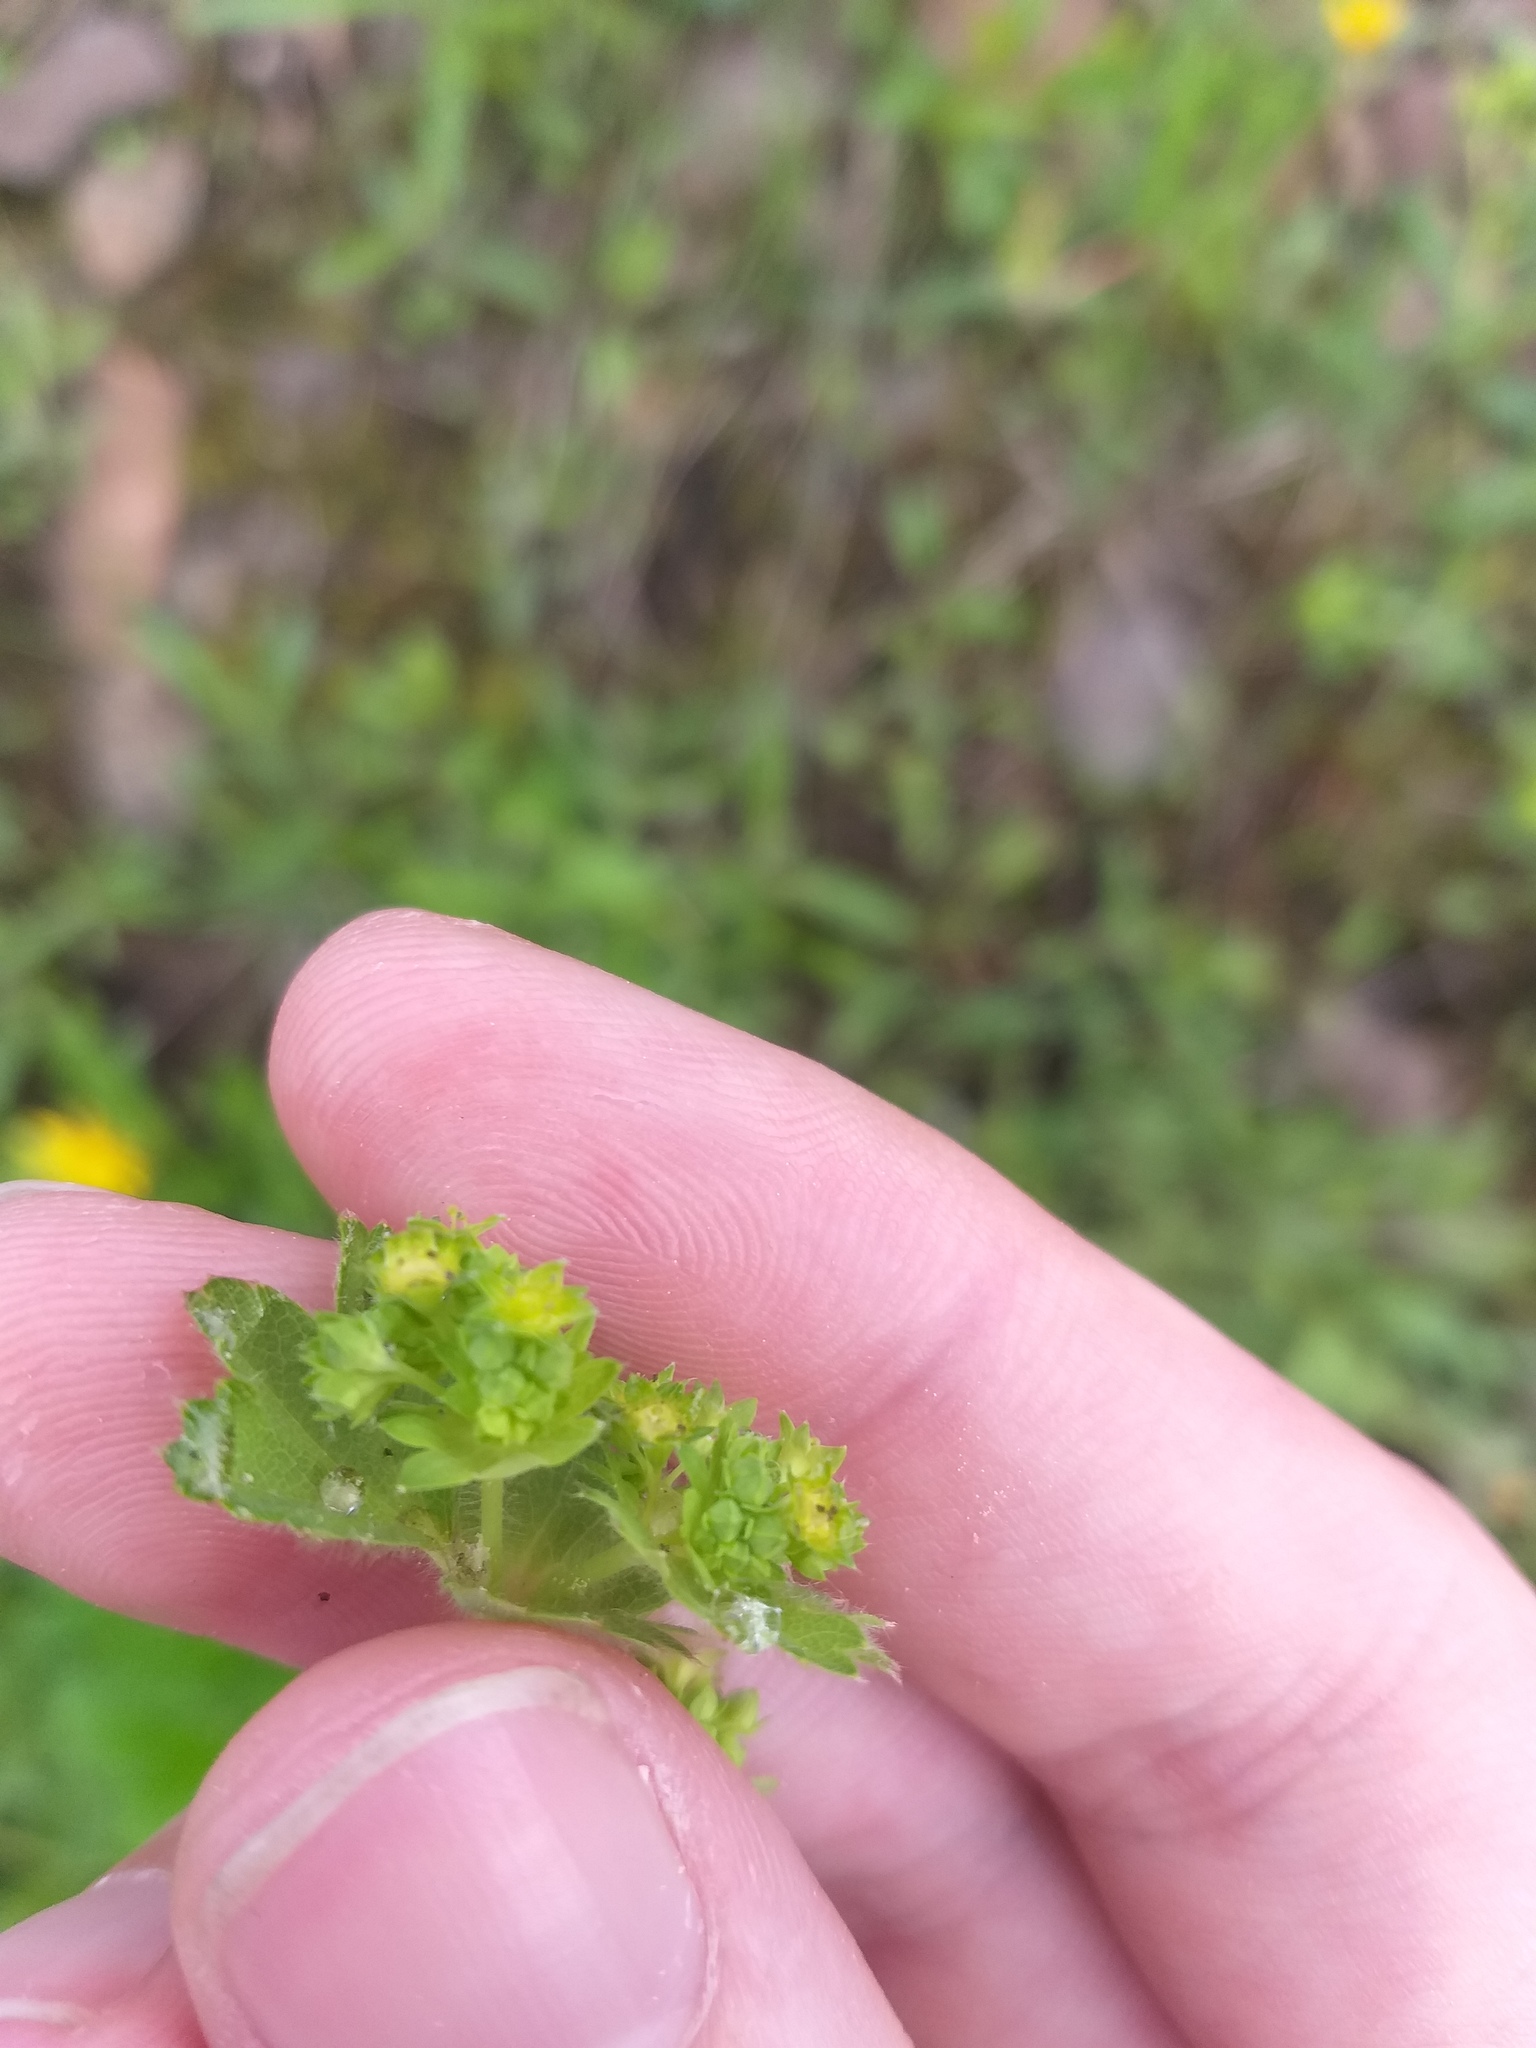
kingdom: Plantae
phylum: Tracheophyta
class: Magnoliopsida
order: Rosales
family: Rosaceae
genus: Alchemilla
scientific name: Alchemilla micans
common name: Gleaming lady's mantle
